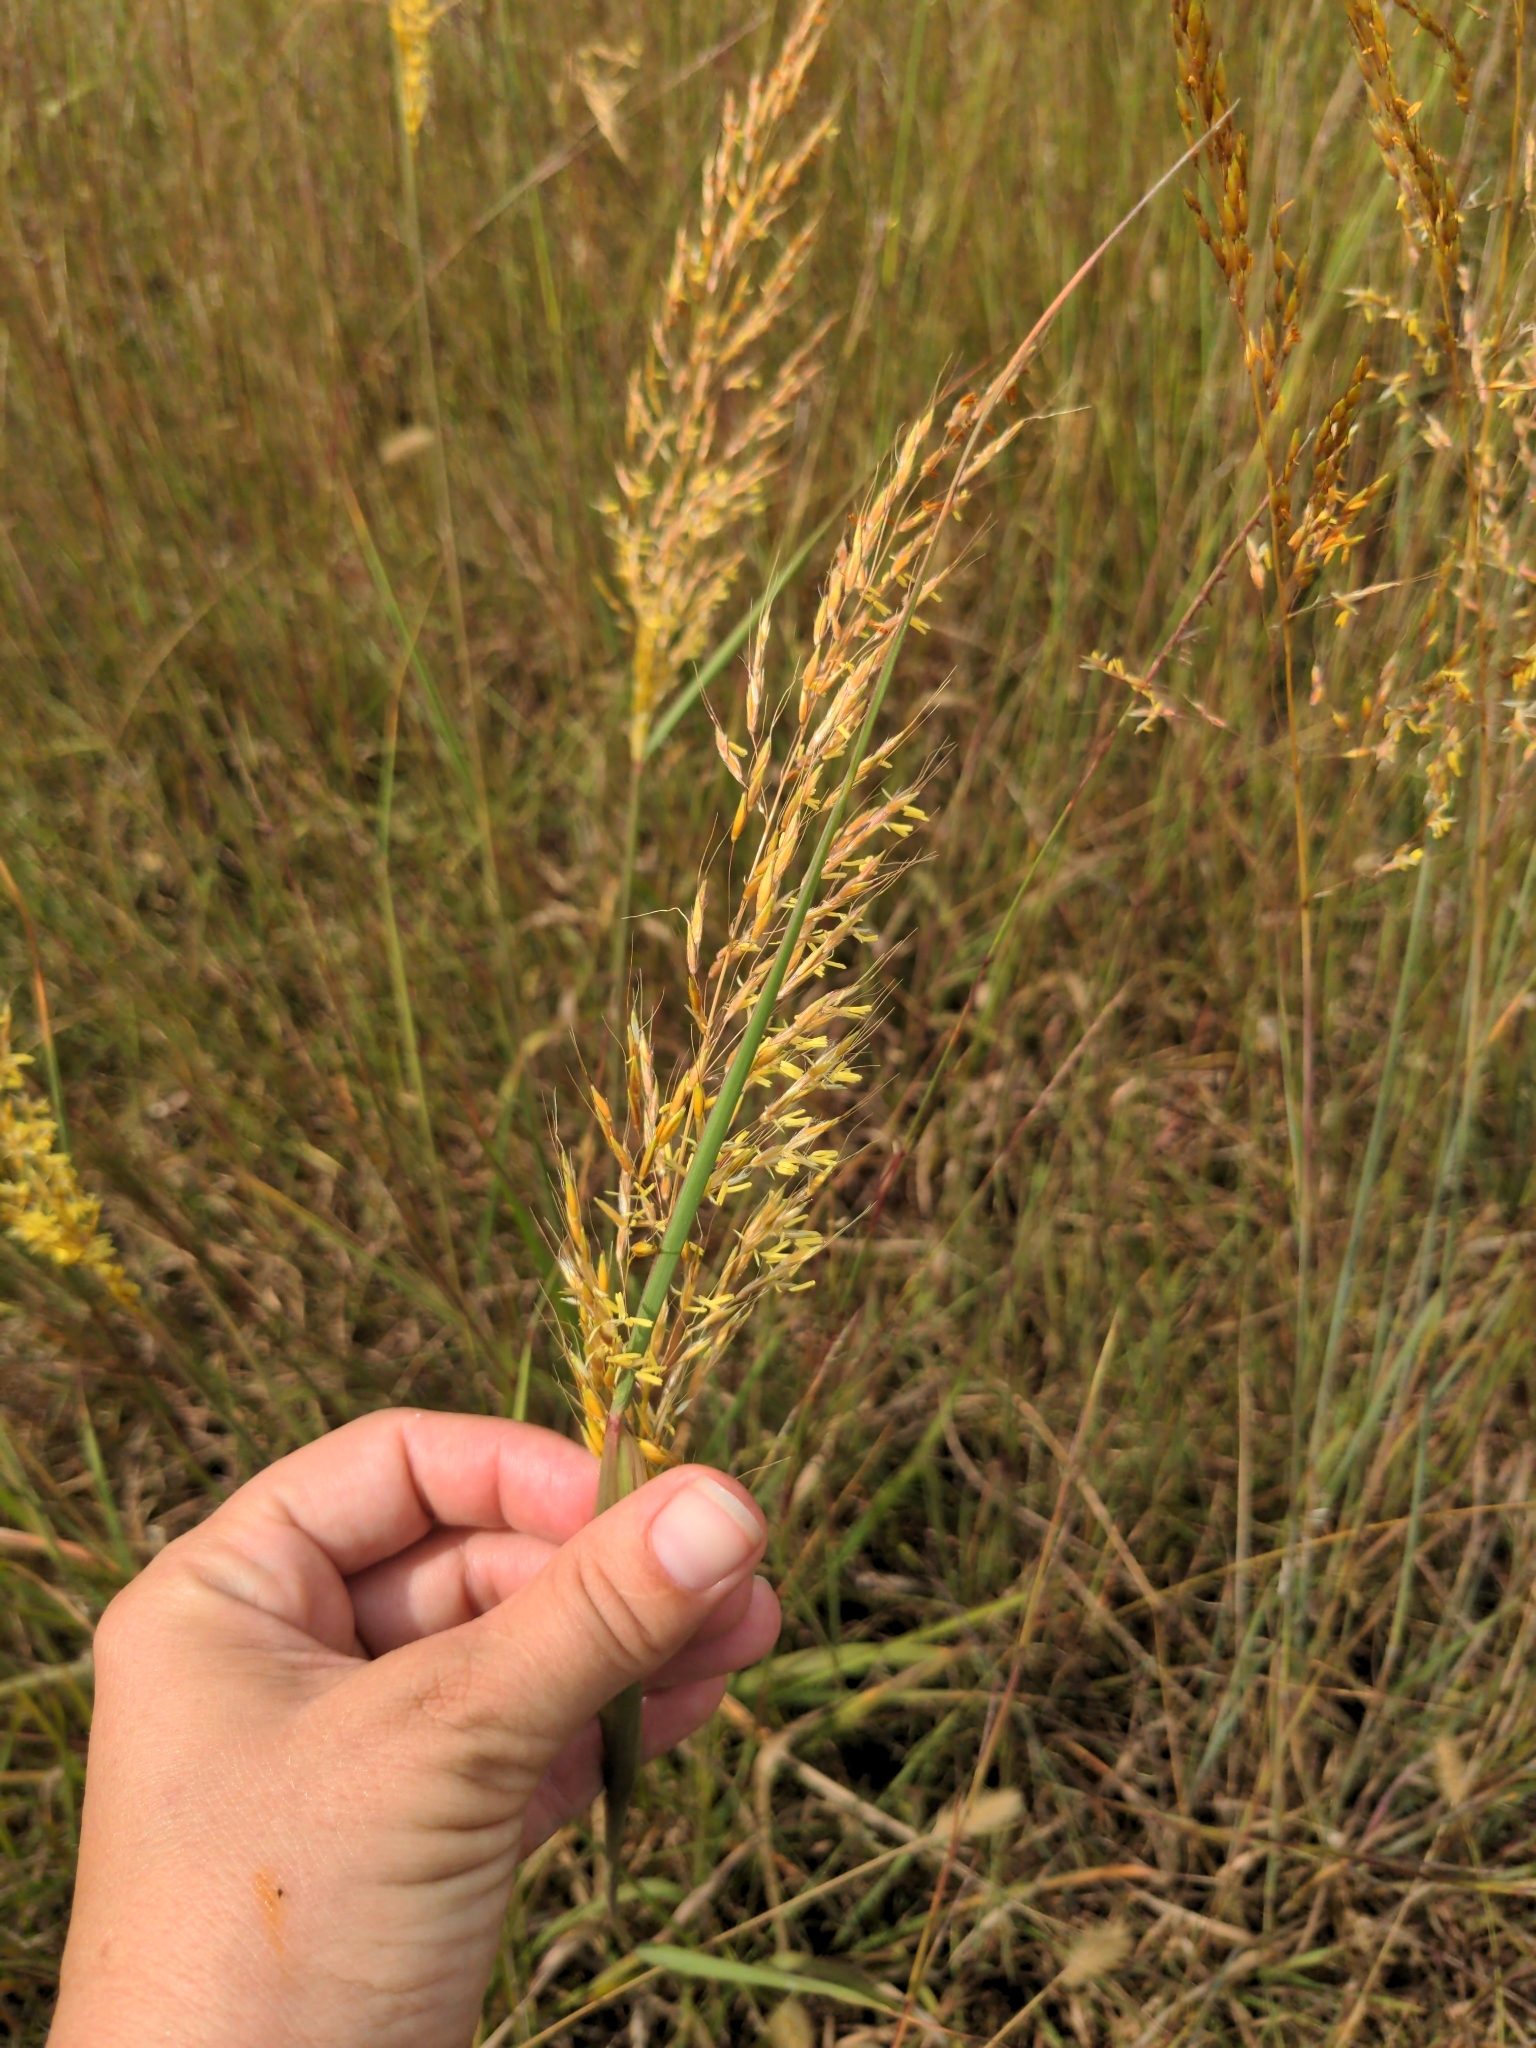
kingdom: Plantae
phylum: Tracheophyta
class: Liliopsida
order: Poales
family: Poaceae
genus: Sorghastrum
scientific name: Sorghastrum nutans
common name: Indian grass
